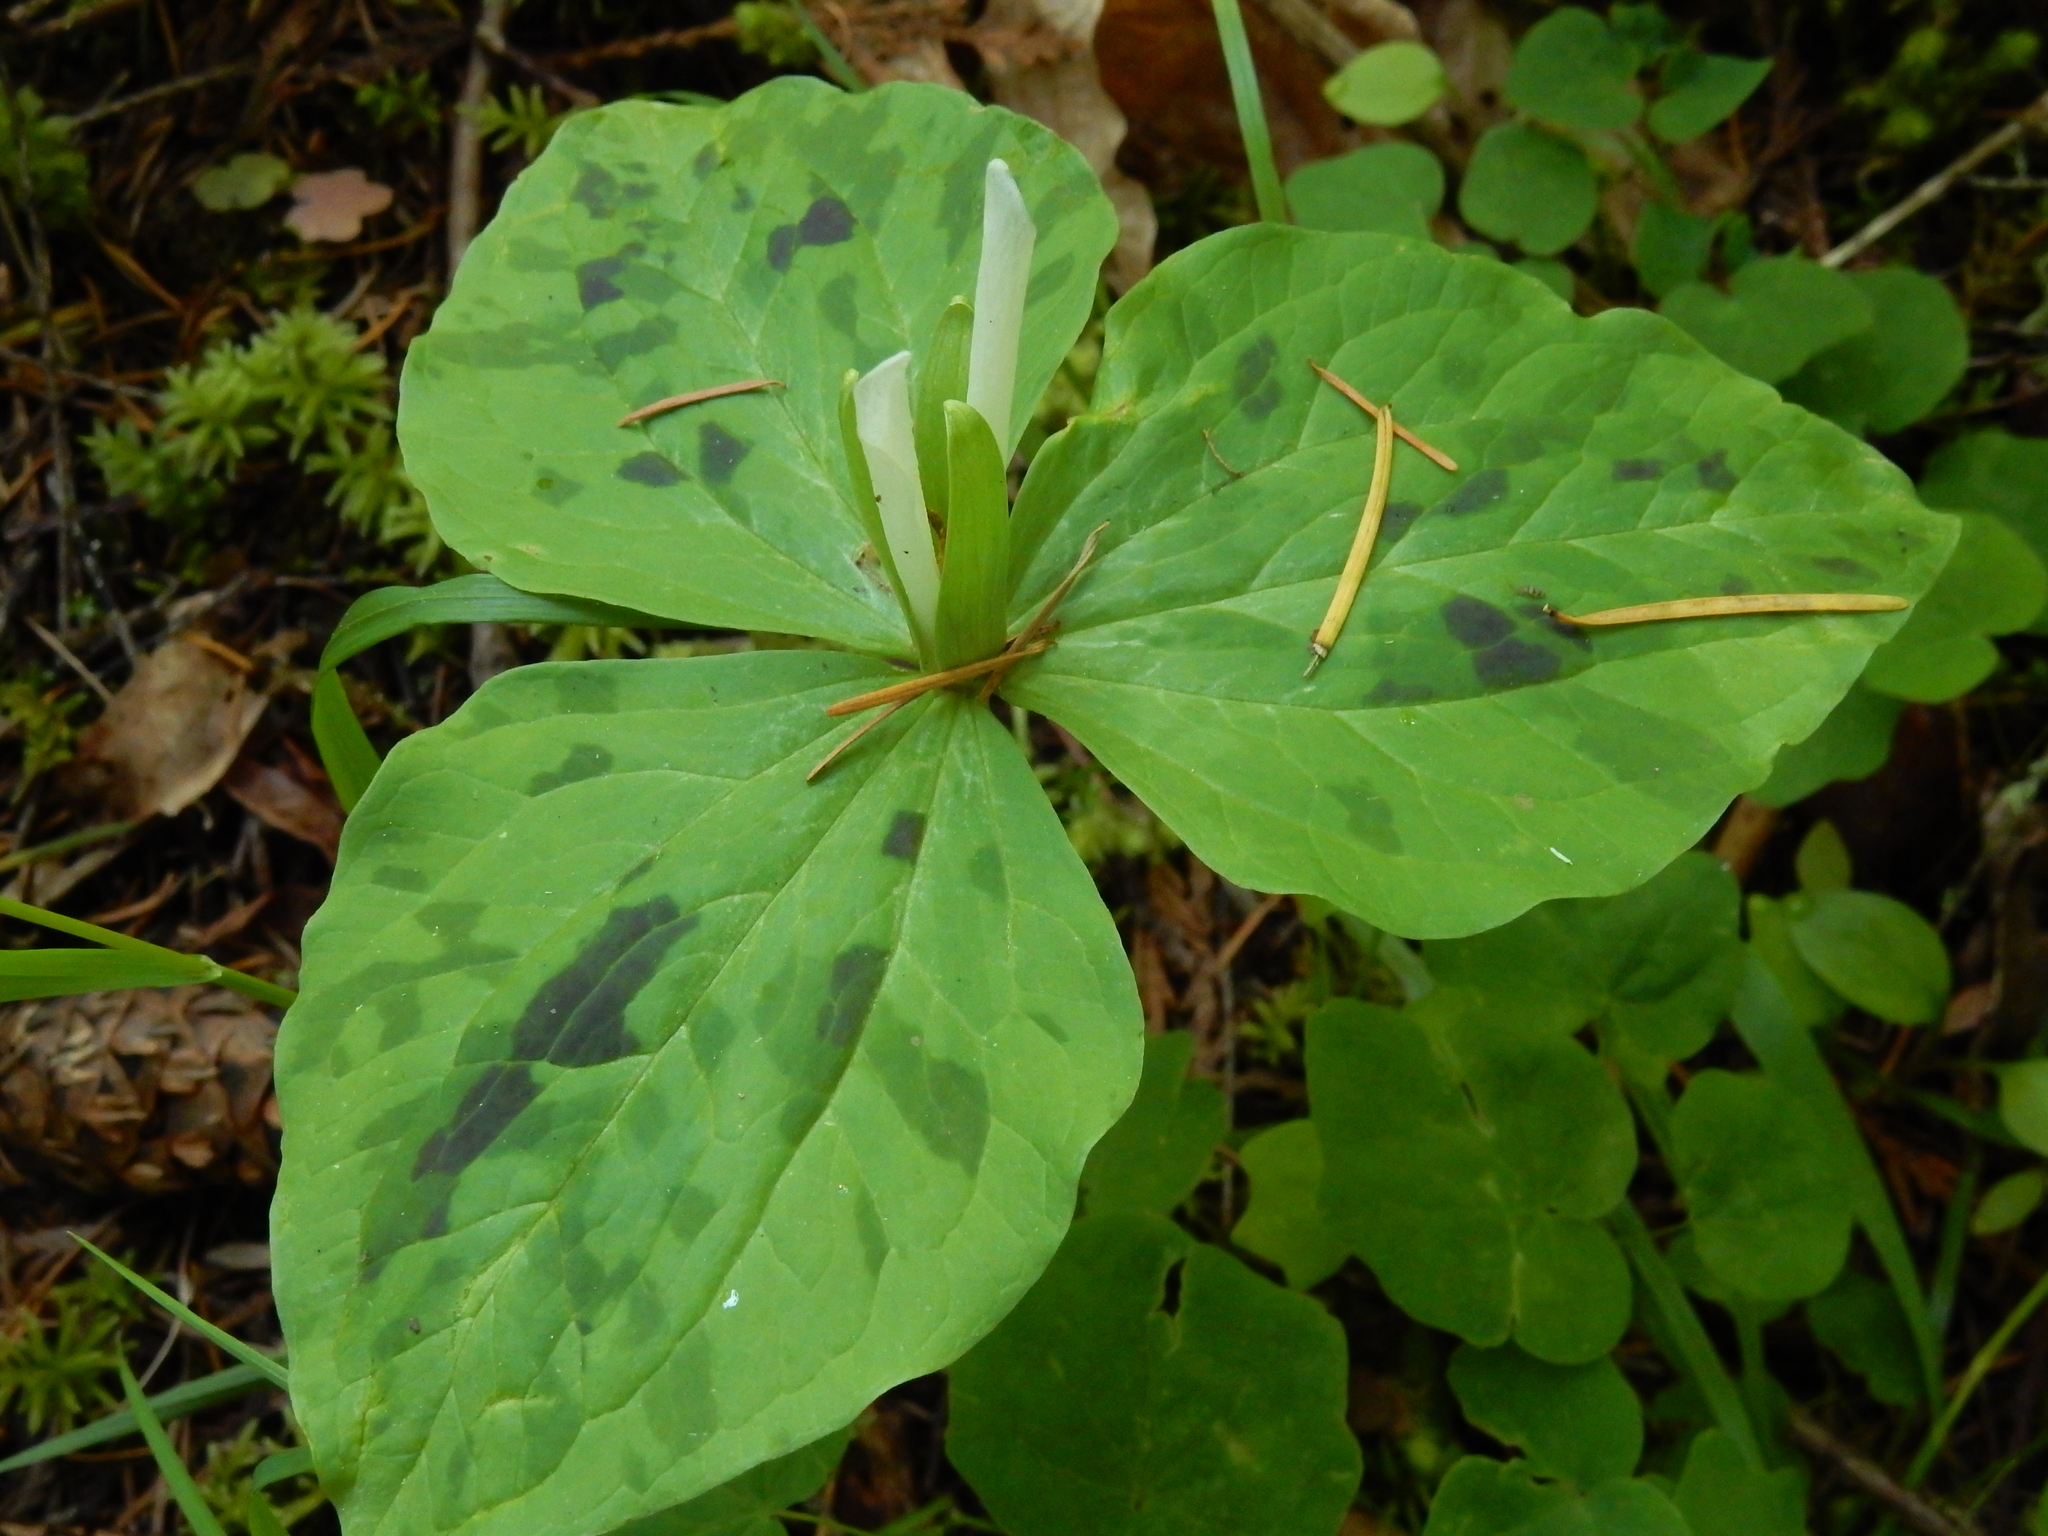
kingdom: Plantae
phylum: Tracheophyta
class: Liliopsida
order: Liliales
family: Melanthiaceae
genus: Trillium
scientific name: Trillium albidum
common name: Freeman's trillium
